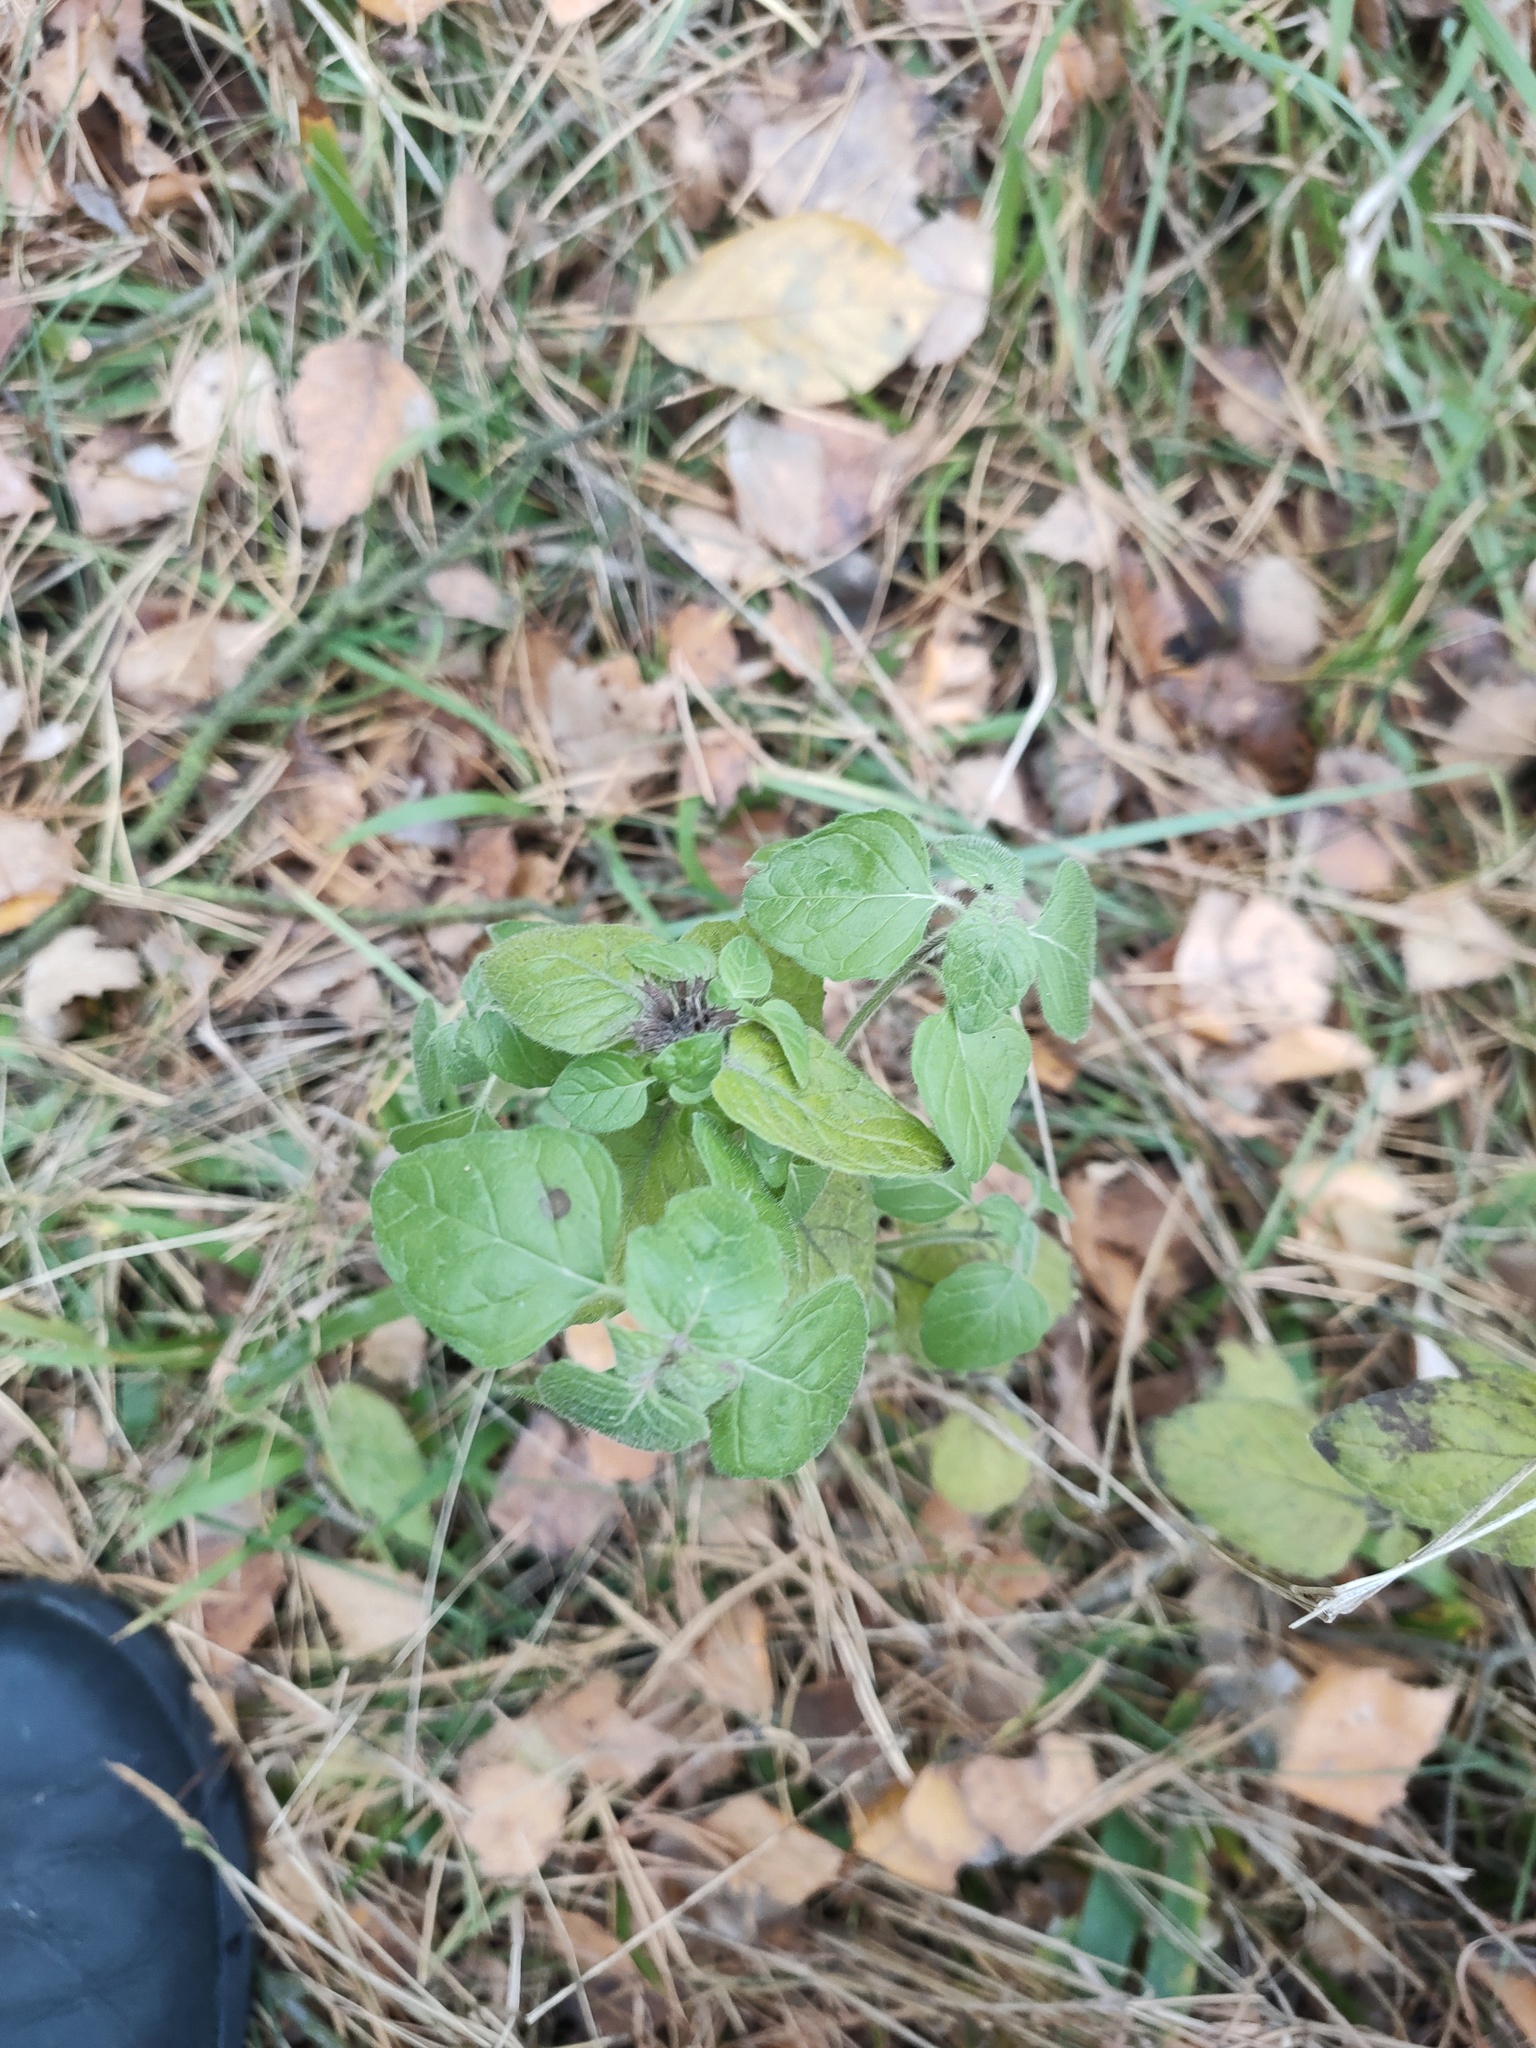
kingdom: Plantae
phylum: Tracheophyta
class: Magnoliopsida
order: Lamiales
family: Lamiaceae
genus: Clinopodium
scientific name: Clinopodium vulgare
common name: Wild basil
